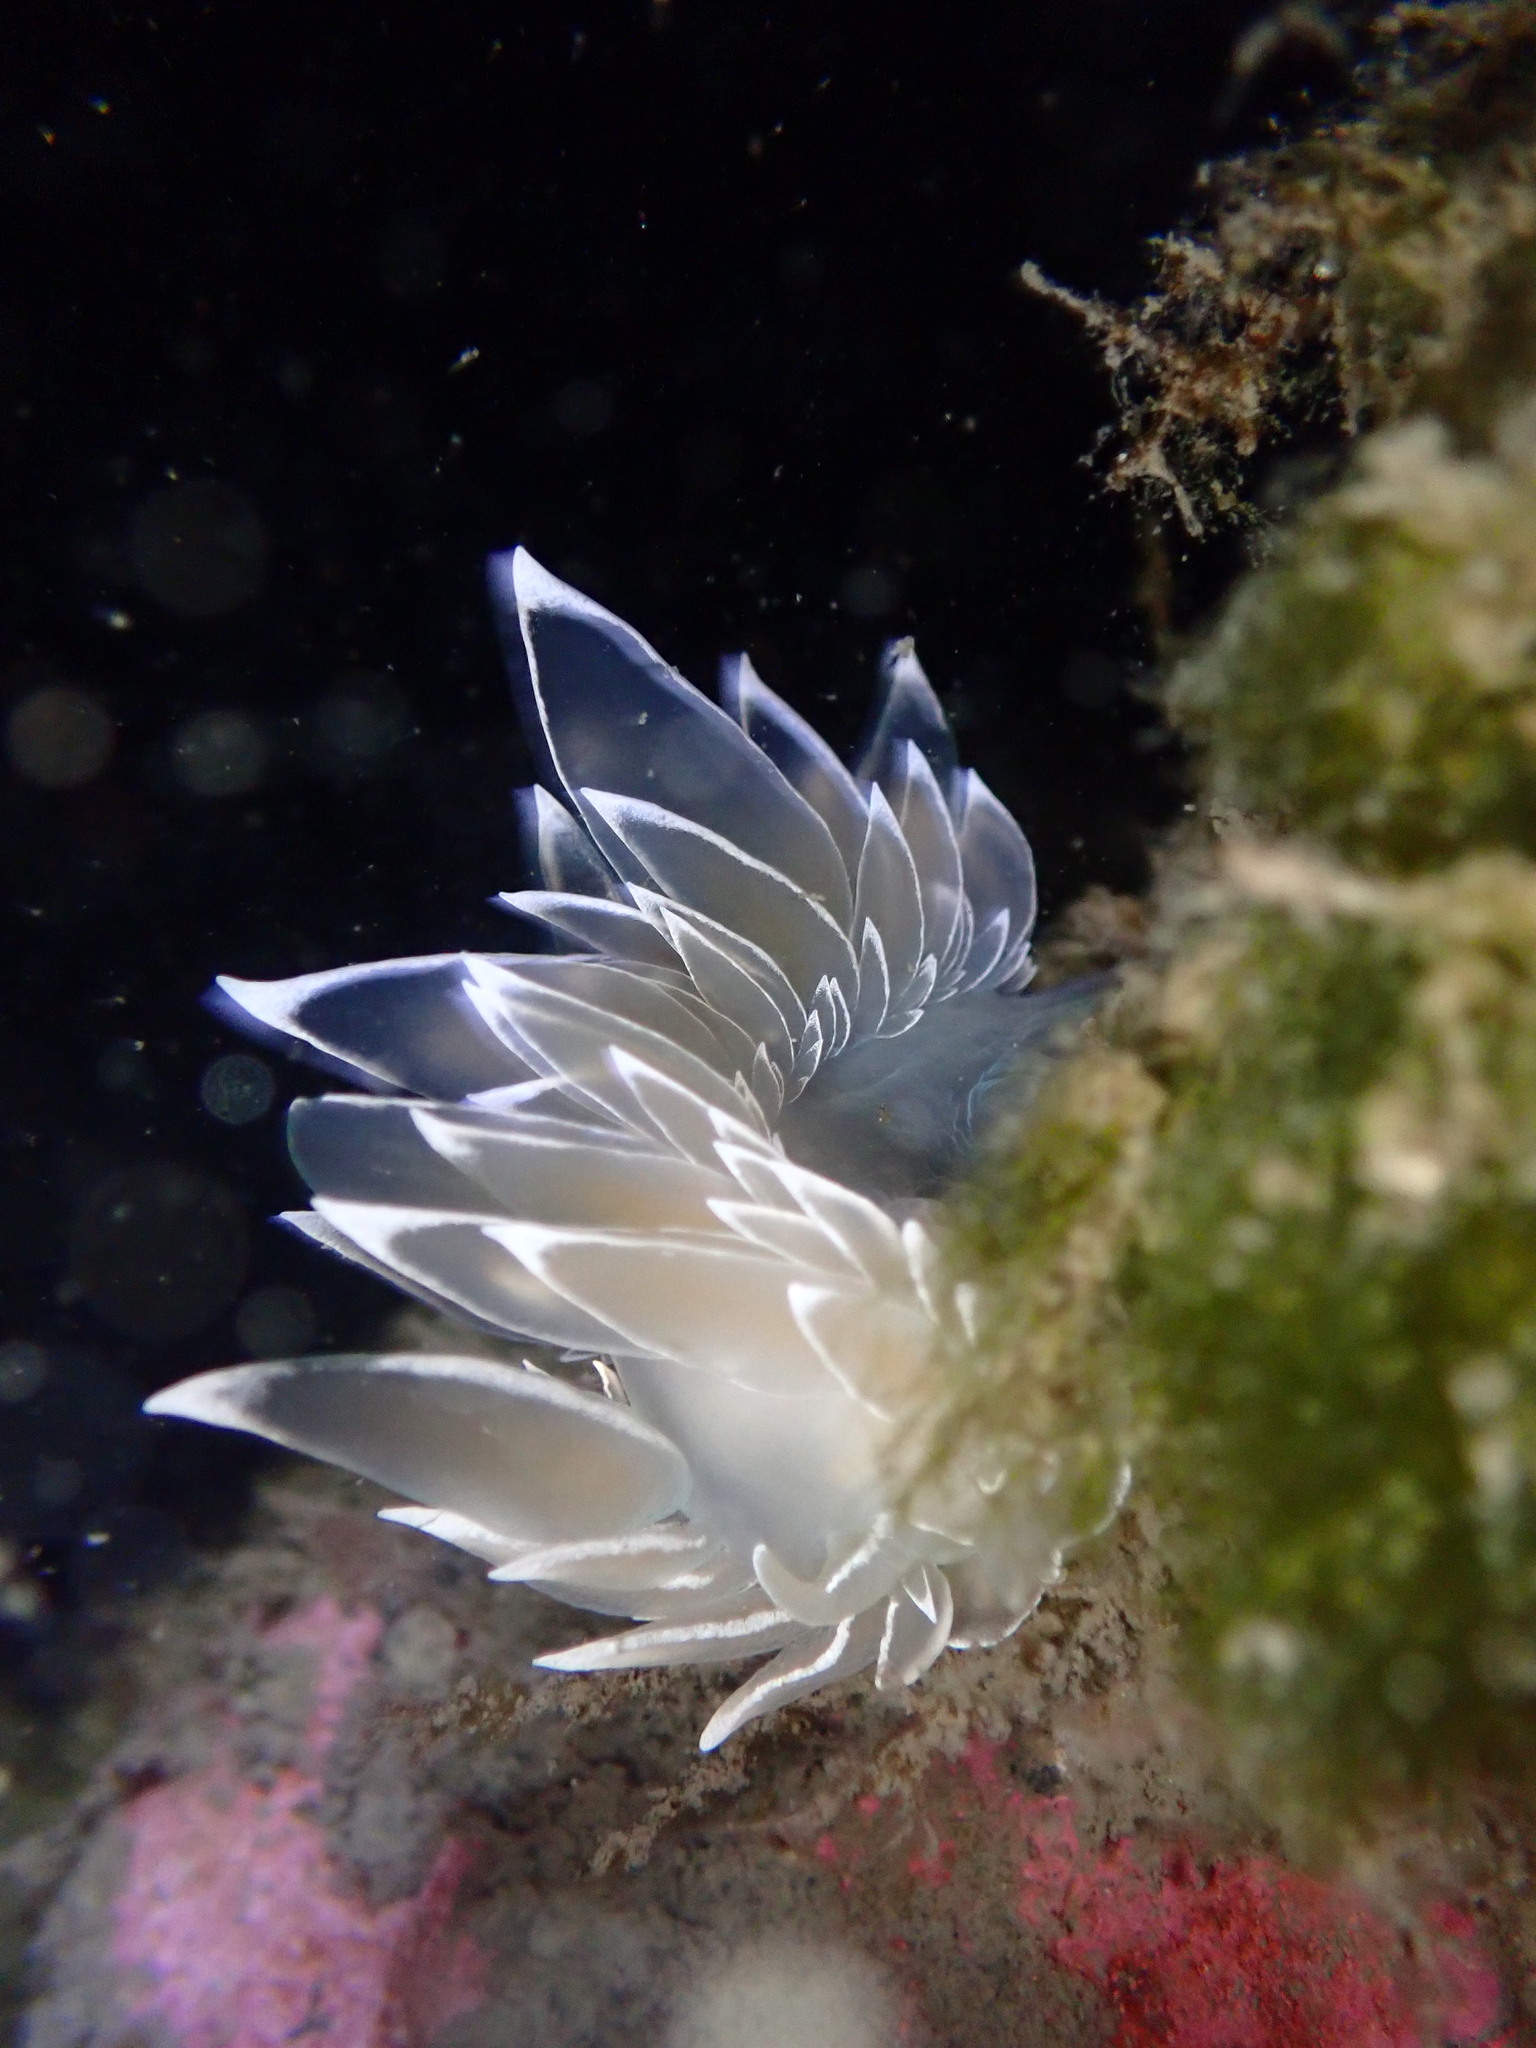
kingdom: Animalia
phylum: Mollusca
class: Gastropoda
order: Nudibranchia
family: Dironidae
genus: Dirona
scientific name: Dirona albolineata
